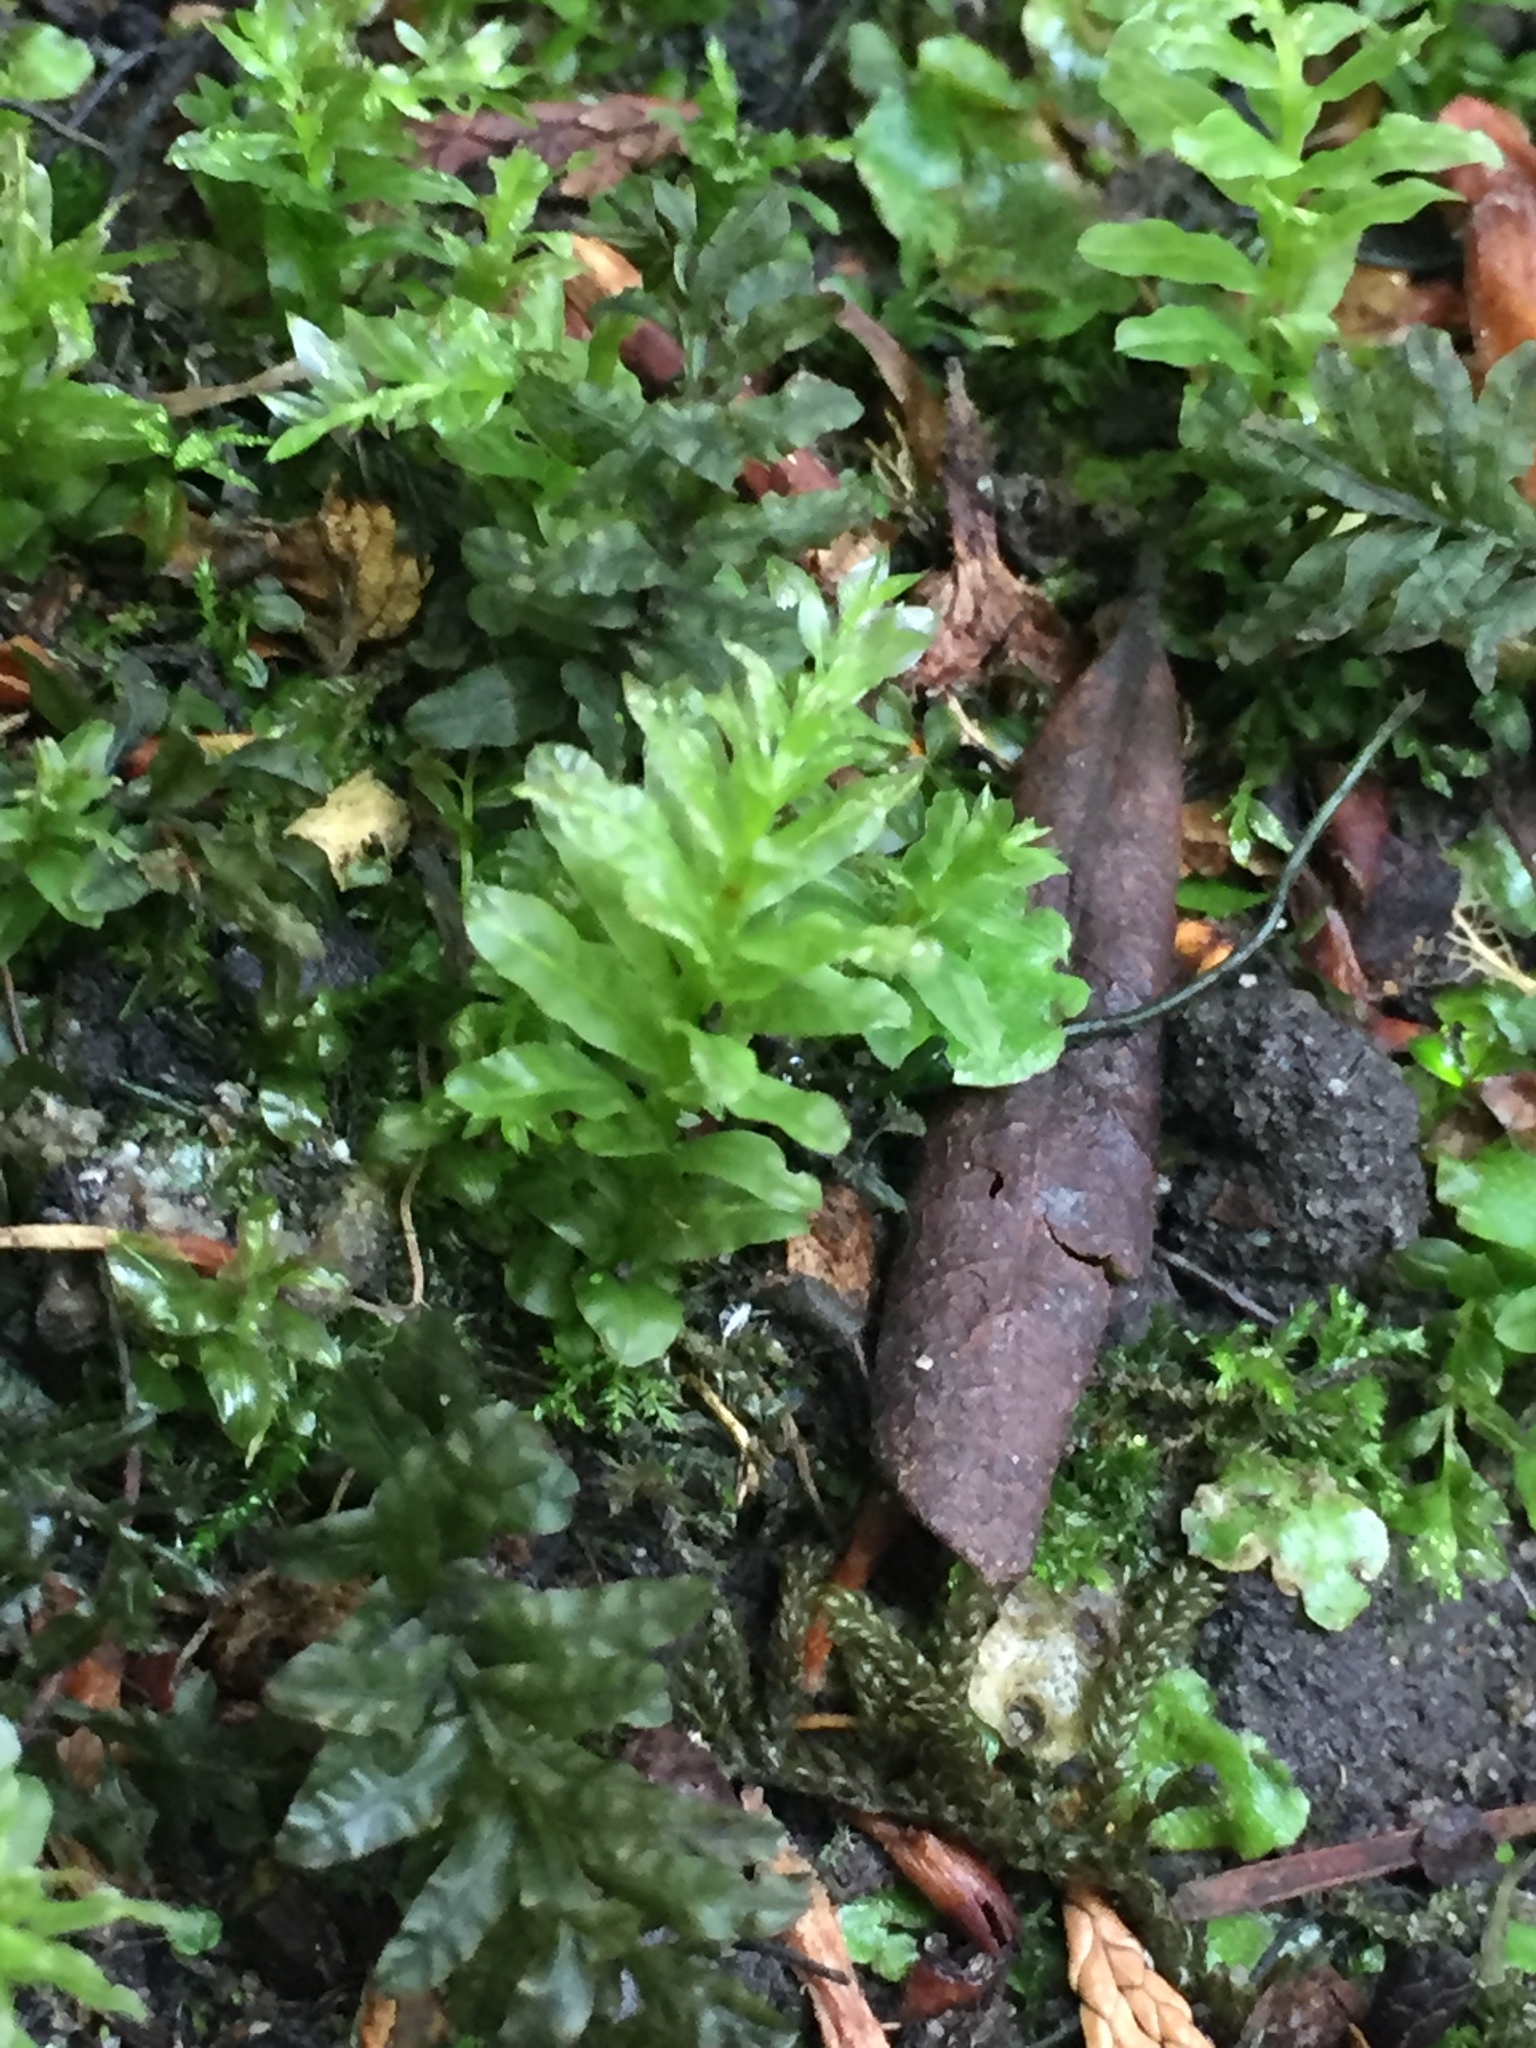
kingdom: Plantae
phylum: Bryophyta
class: Bryopsida
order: Bryales
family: Mniaceae
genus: Plagiomnium
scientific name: Plagiomnium undulatum
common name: Hart's-tongue thyme-moss
